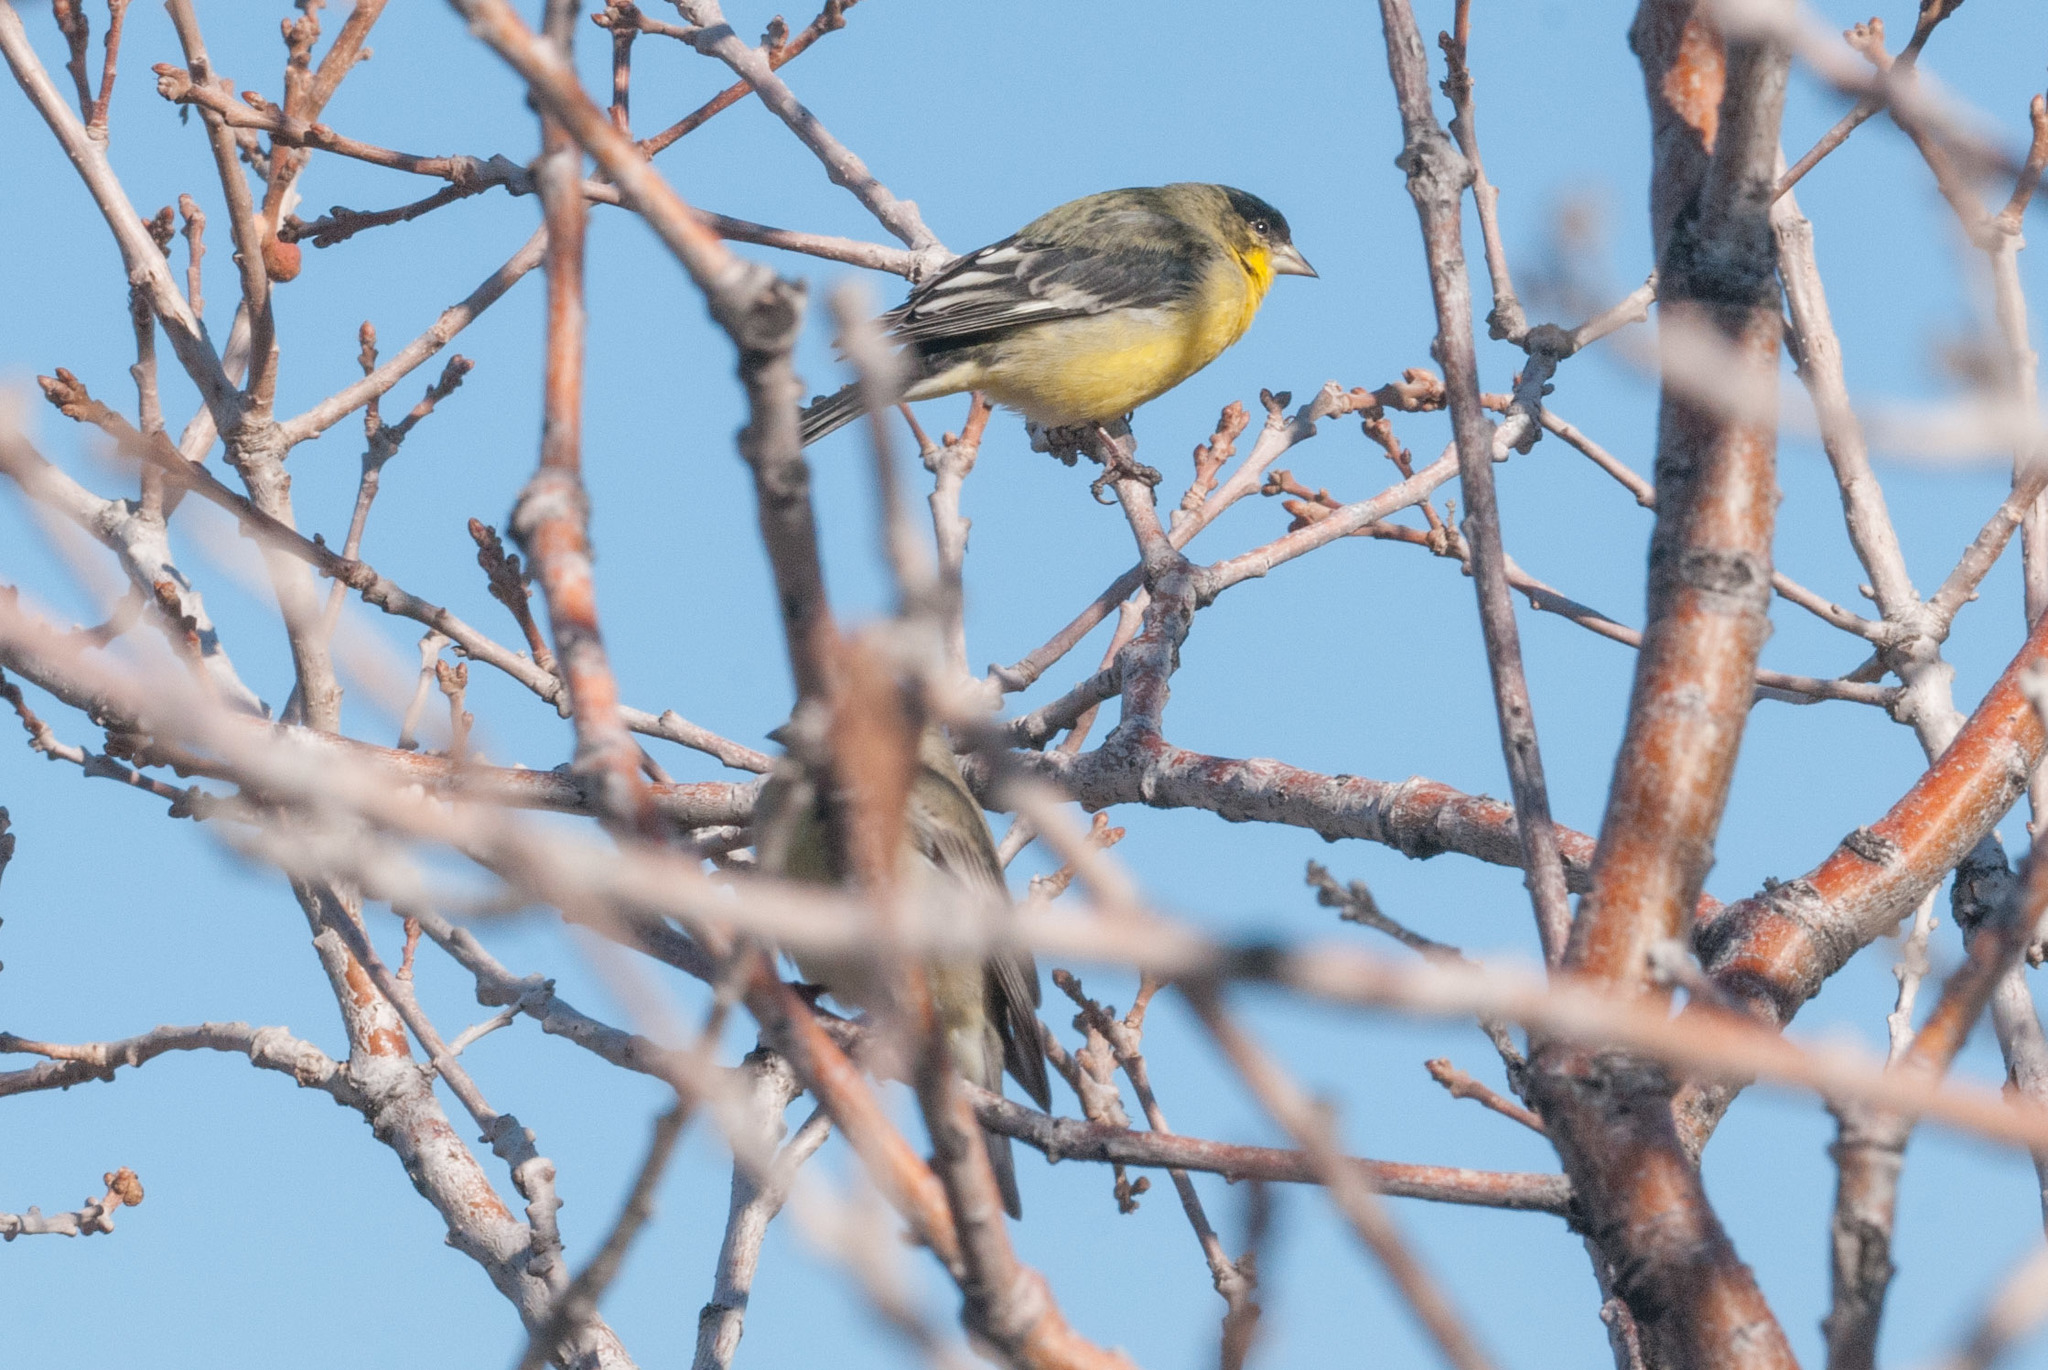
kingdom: Animalia
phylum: Chordata
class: Aves
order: Passeriformes
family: Fringillidae
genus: Spinus
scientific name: Spinus psaltria
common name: Lesser goldfinch
